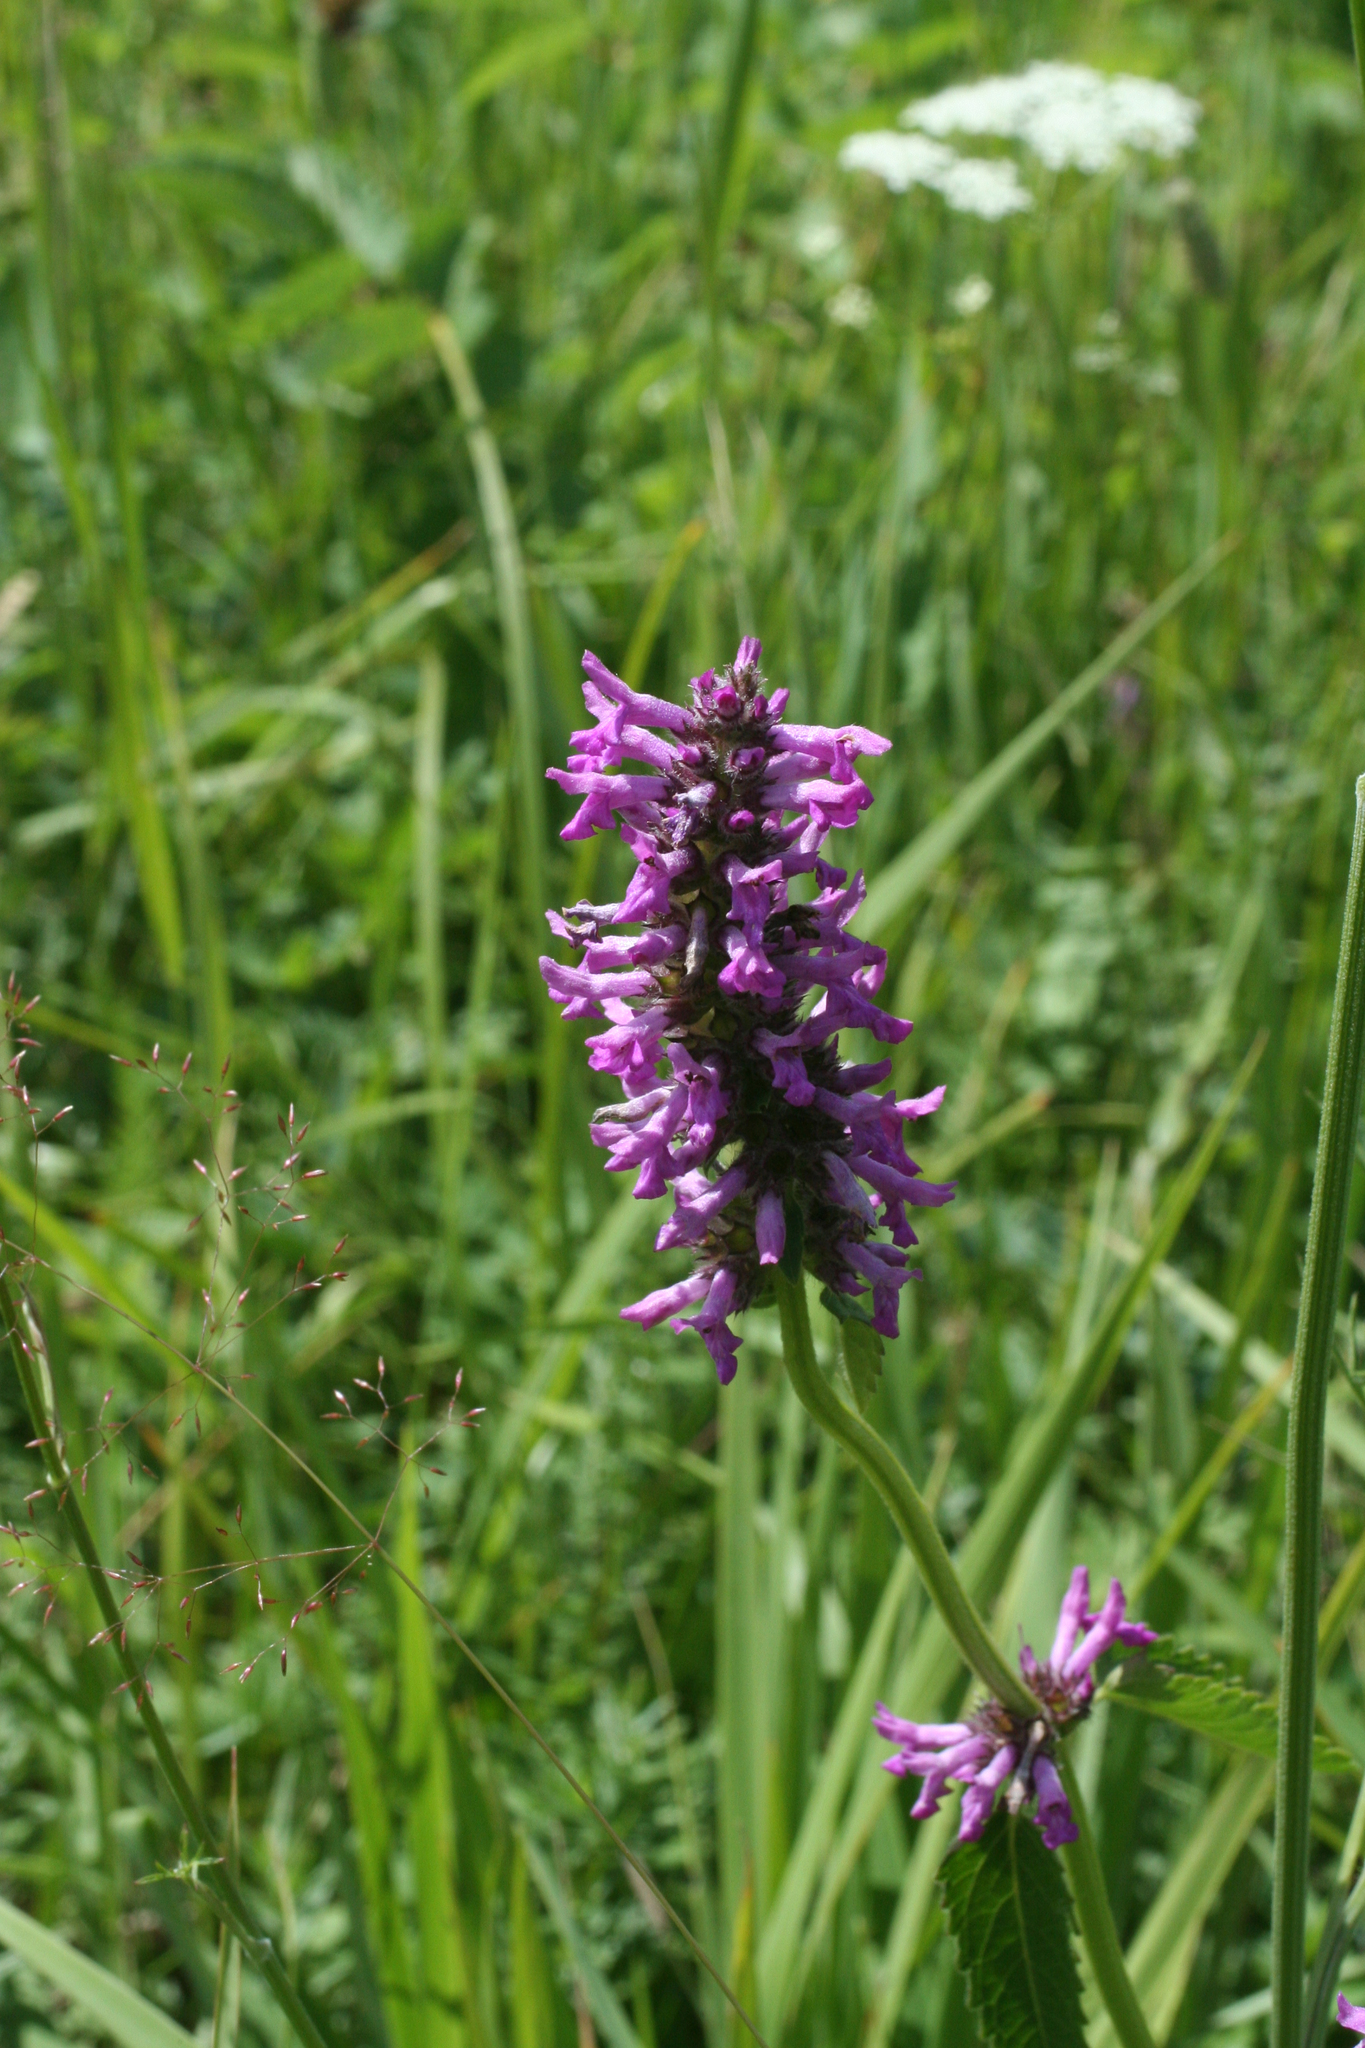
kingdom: Plantae
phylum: Tracheophyta
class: Magnoliopsida
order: Lamiales
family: Lamiaceae
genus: Betonica
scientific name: Betonica officinalis
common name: Bishop's-wort
